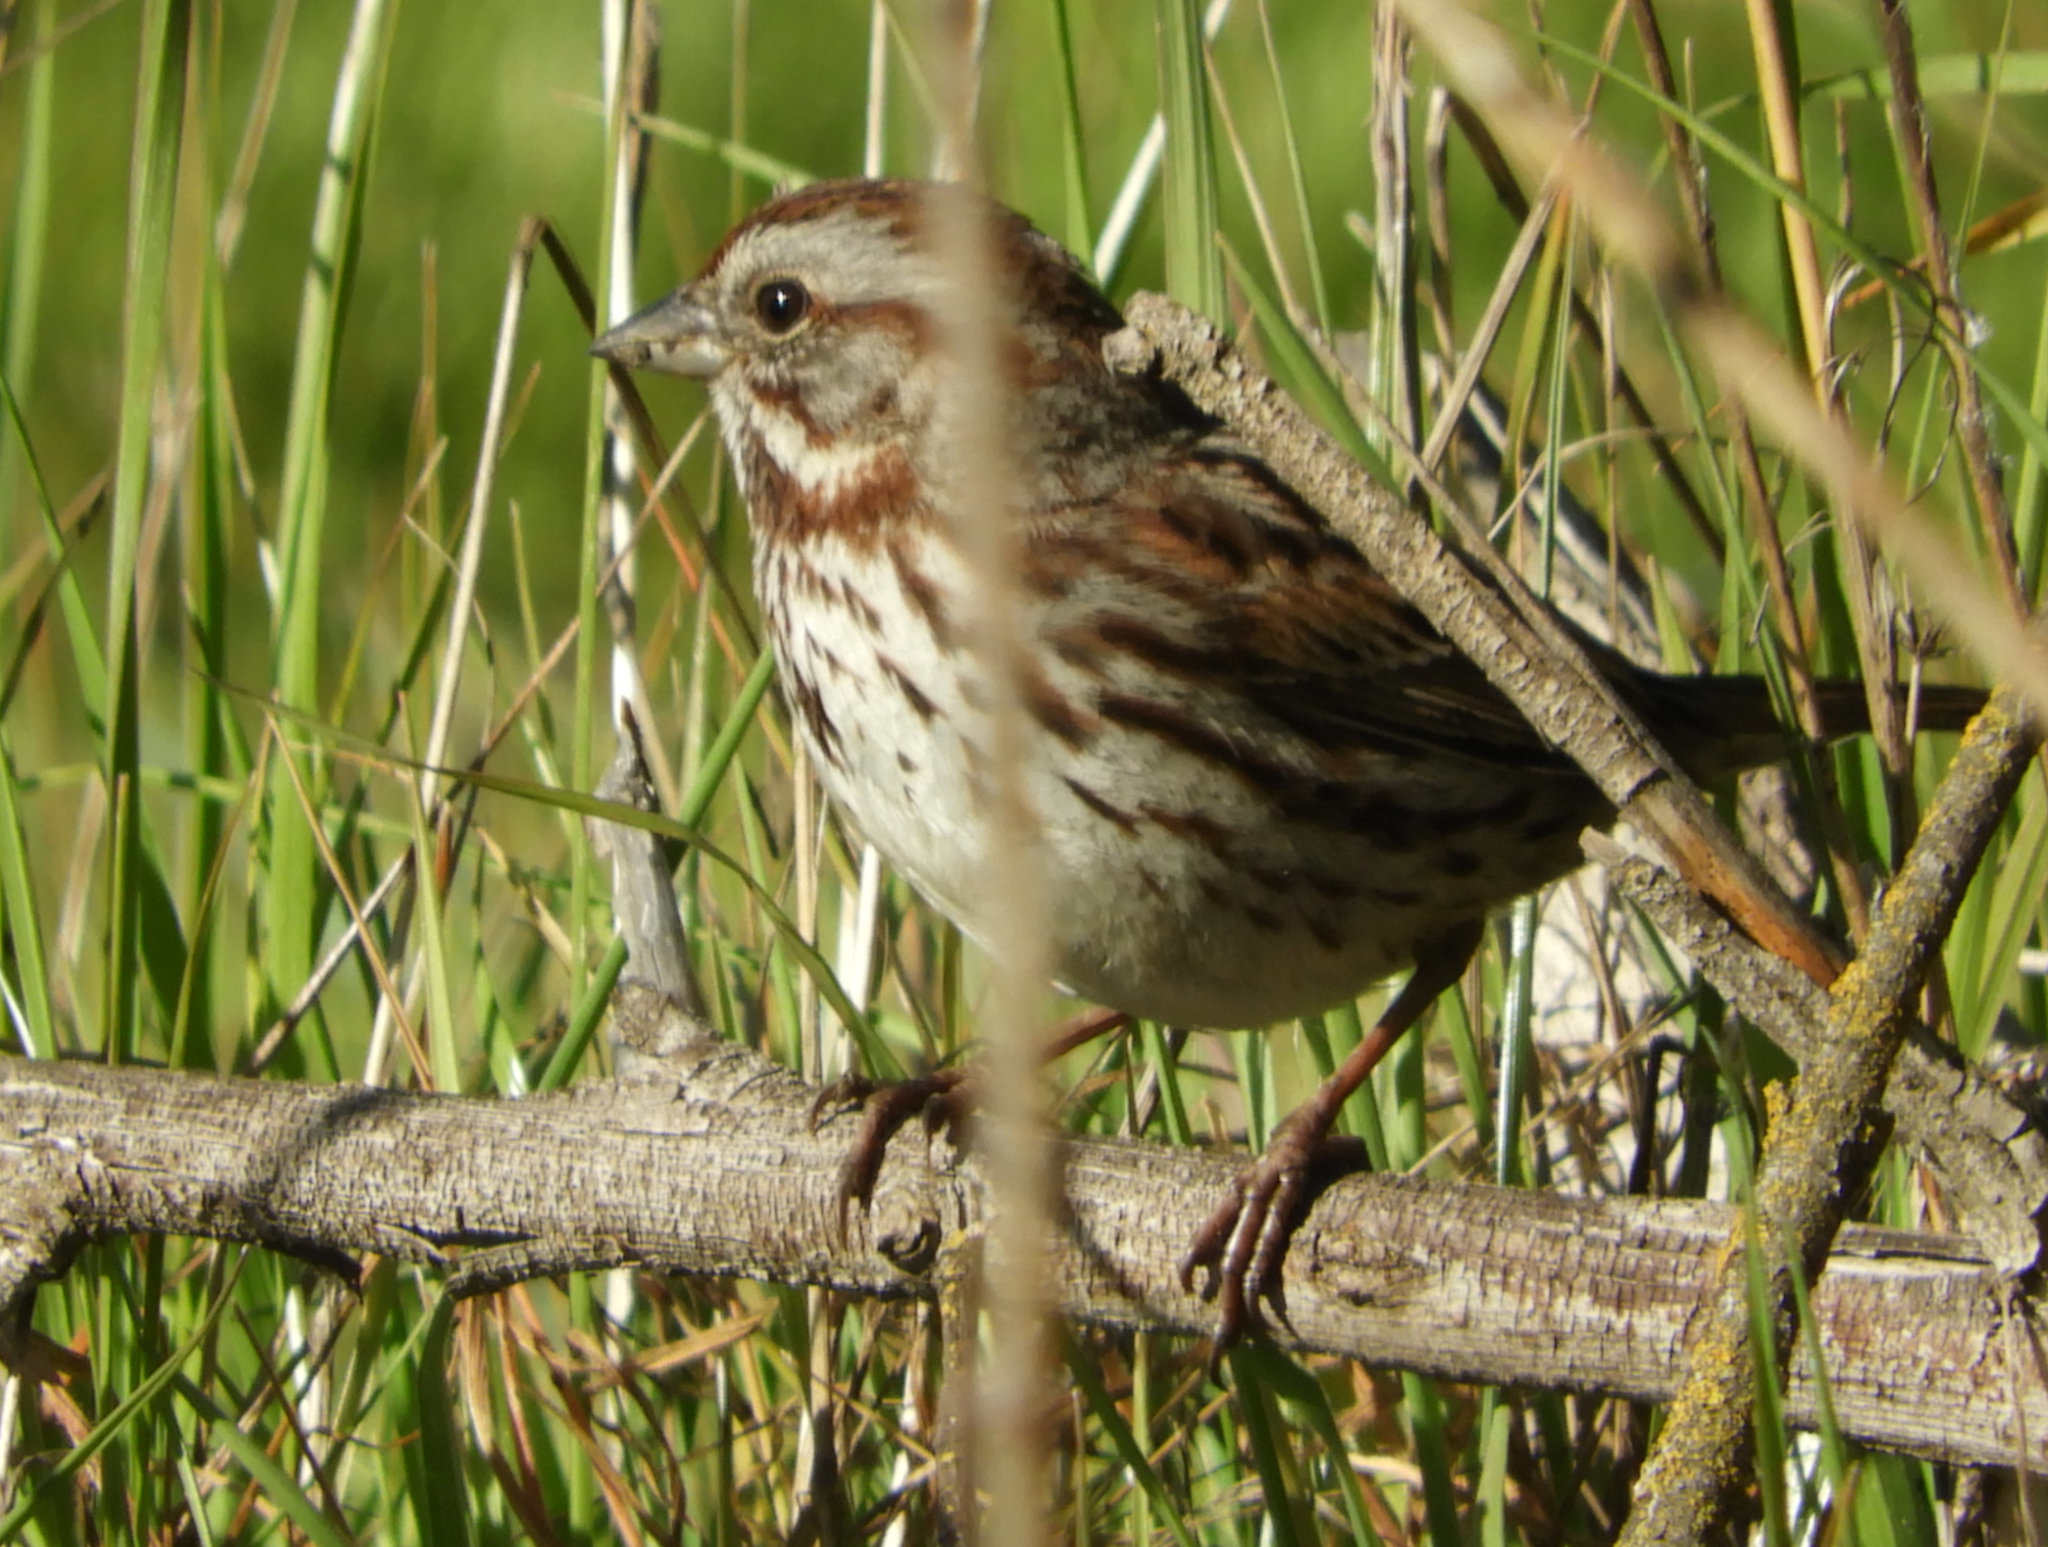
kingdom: Animalia
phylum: Chordata
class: Aves
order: Passeriformes
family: Passerellidae
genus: Melospiza
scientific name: Melospiza melodia
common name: Song sparrow
